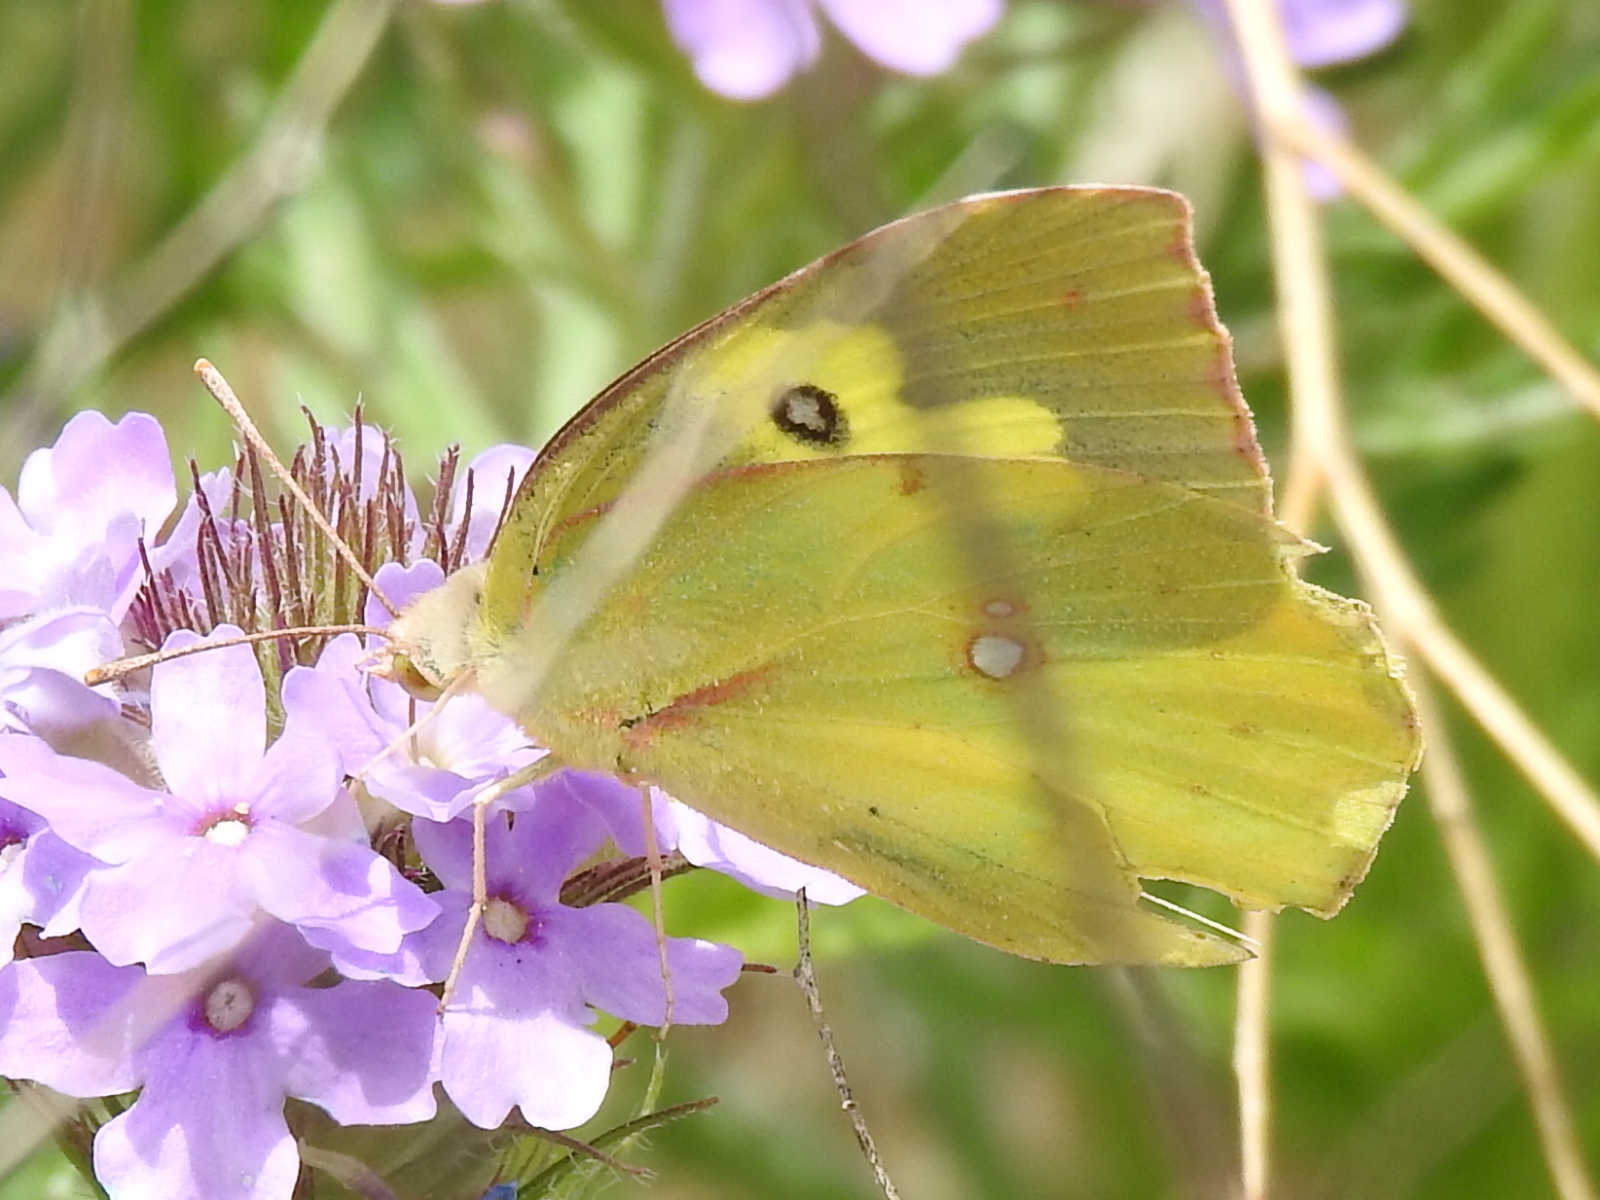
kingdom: Animalia
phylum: Arthropoda
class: Insecta
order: Lepidoptera
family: Pieridae
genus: Zerene
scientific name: Zerene cesonia
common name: Southern dogface
